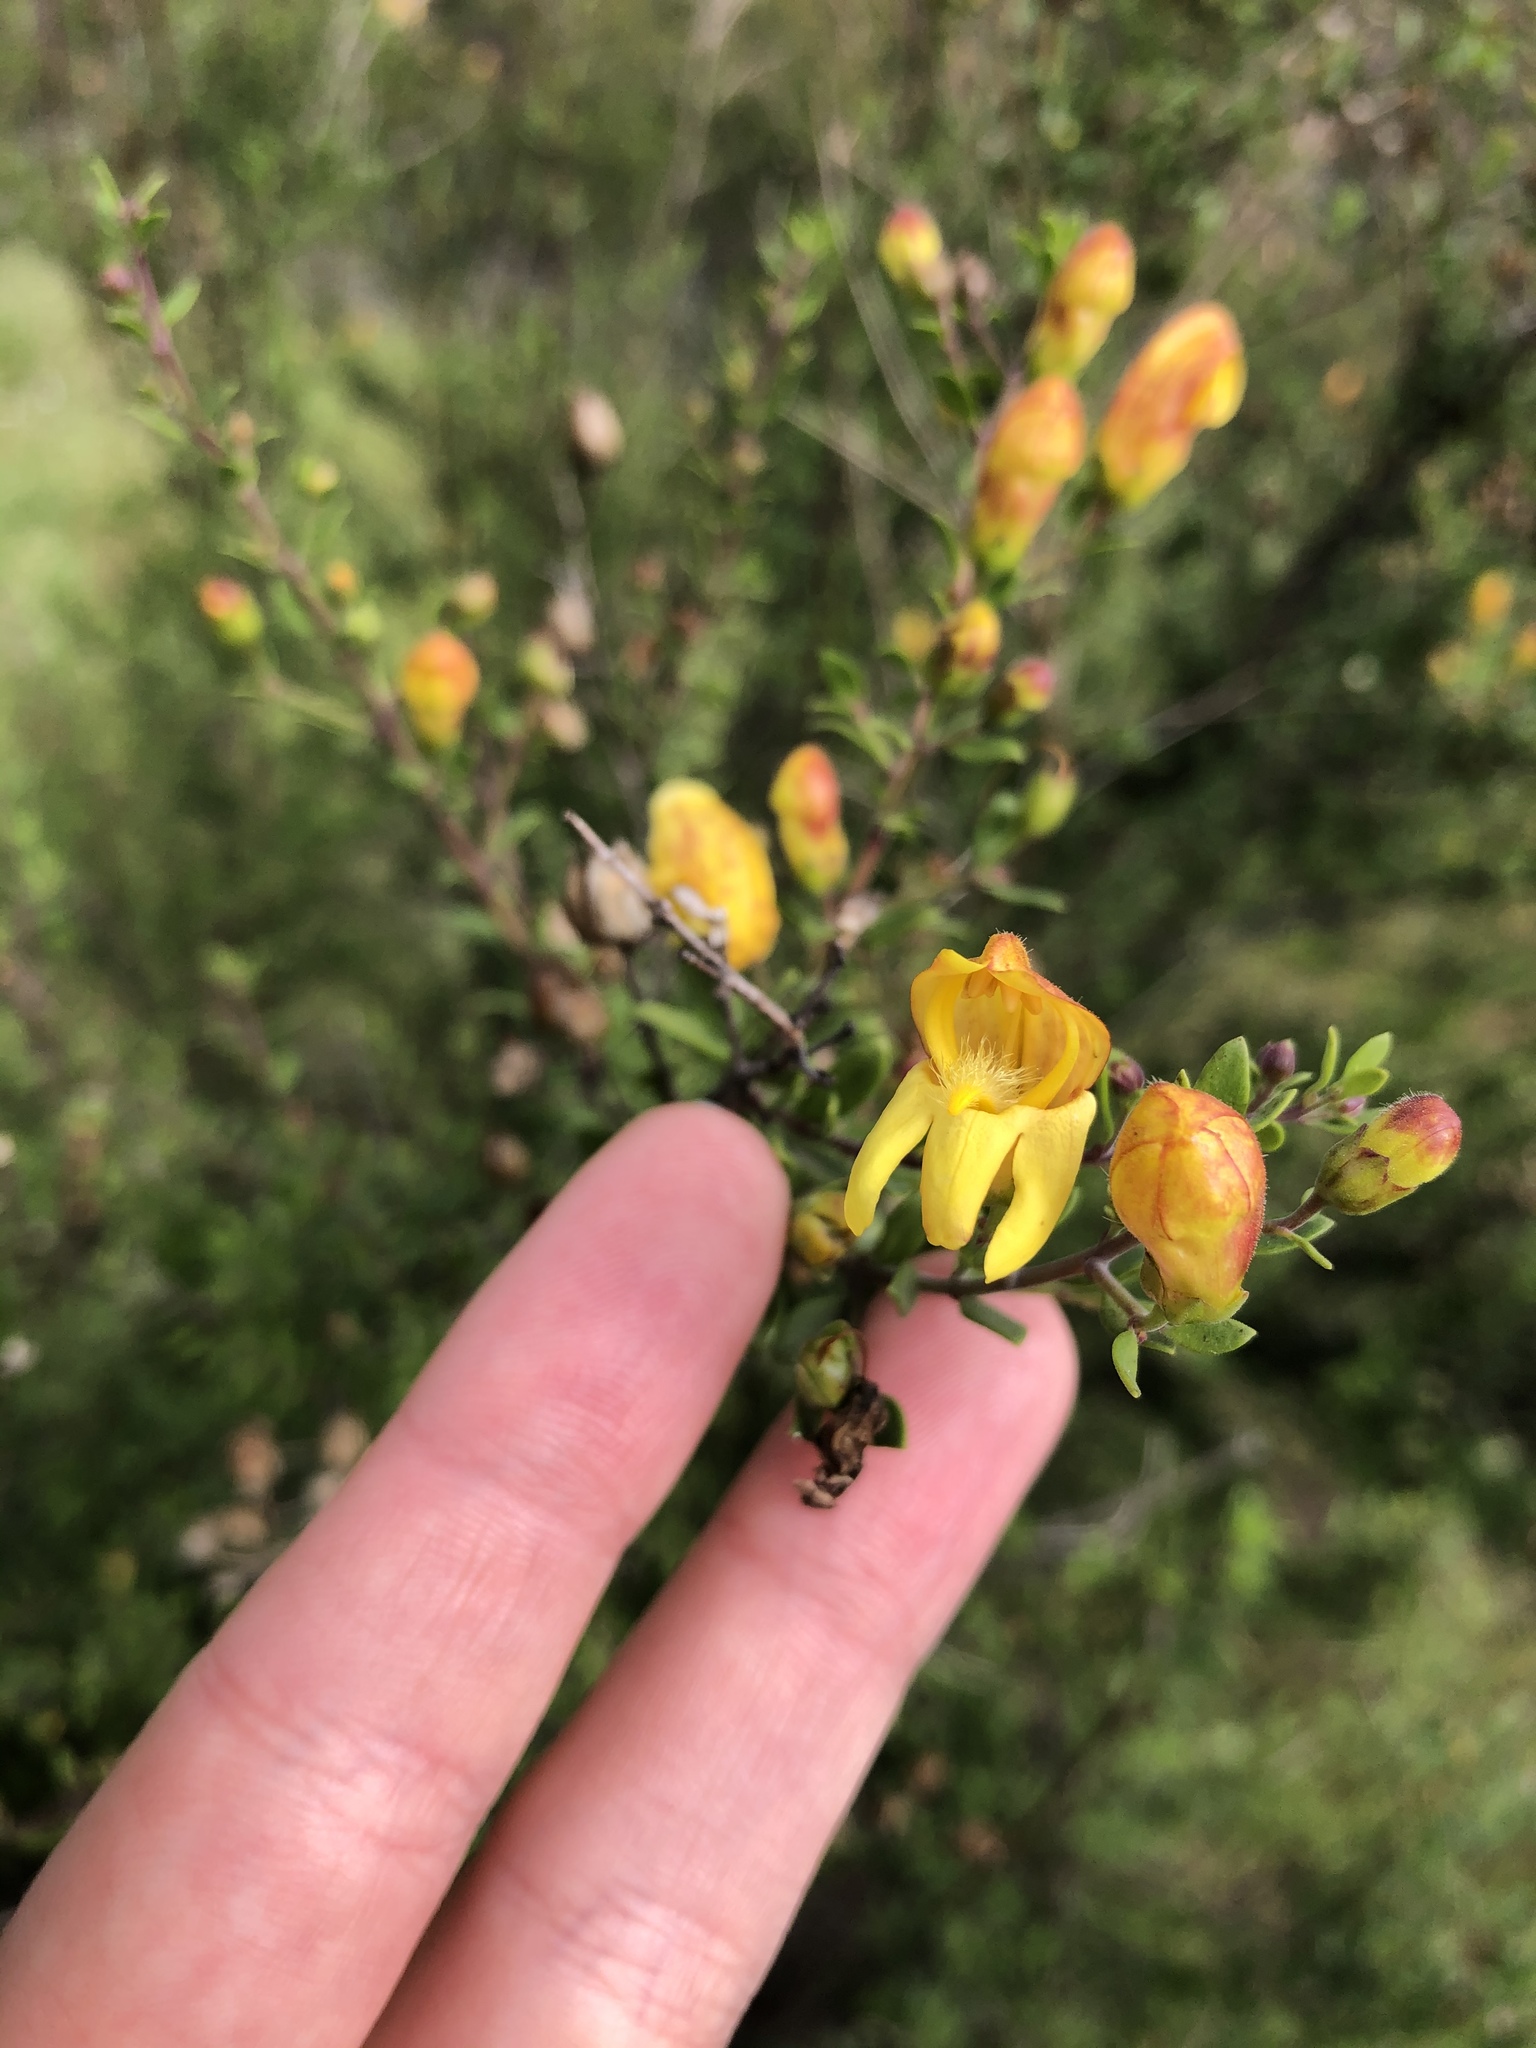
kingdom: Plantae
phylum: Tracheophyta
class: Magnoliopsida
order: Lamiales
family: Plantaginaceae
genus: Keckiella
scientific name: Keckiella antirrhinoides
